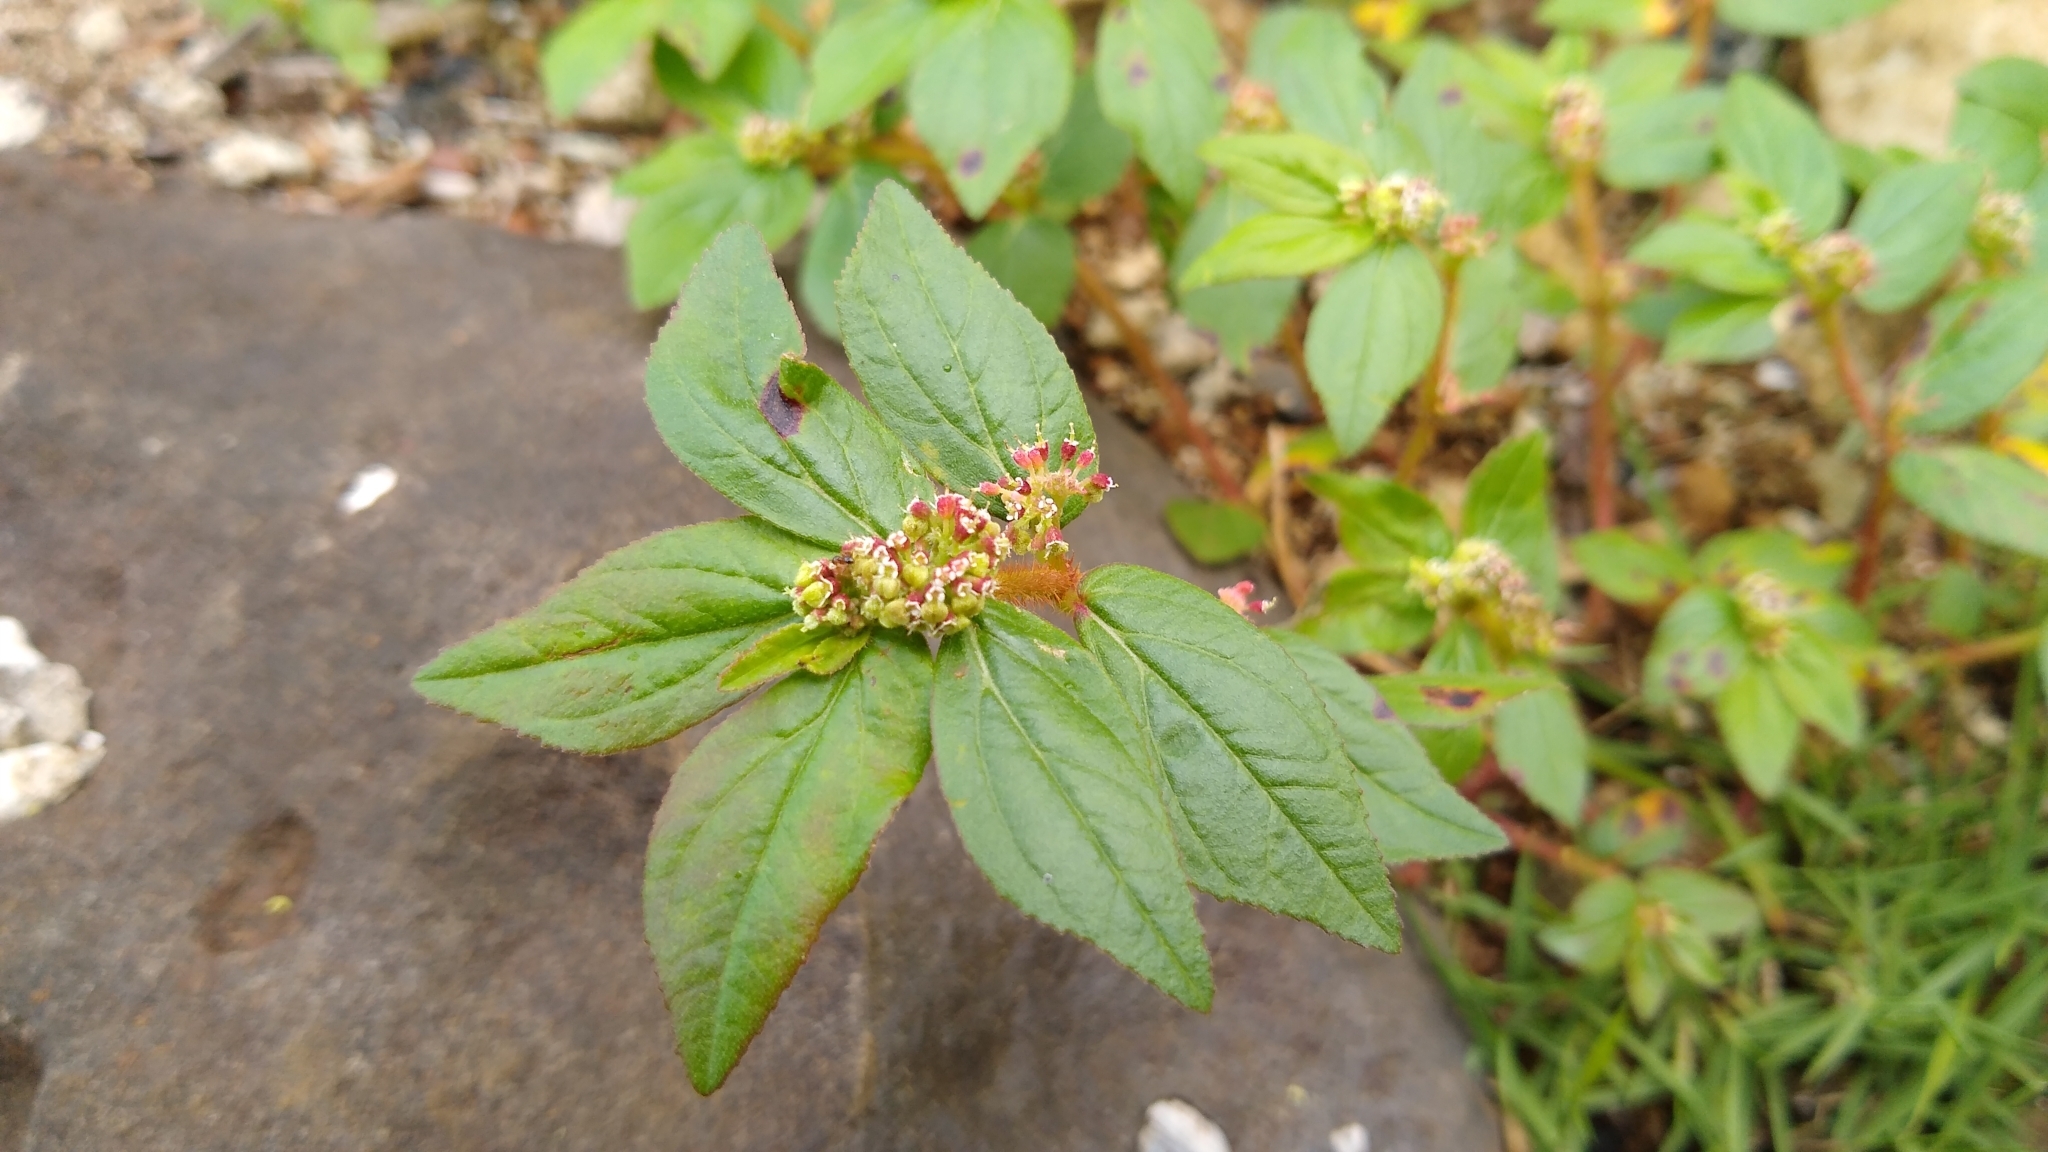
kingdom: Plantae
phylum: Tracheophyta
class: Magnoliopsida
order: Malpighiales
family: Euphorbiaceae
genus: Euphorbia
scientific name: Euphorbia hirta
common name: Pillpod sandmat
